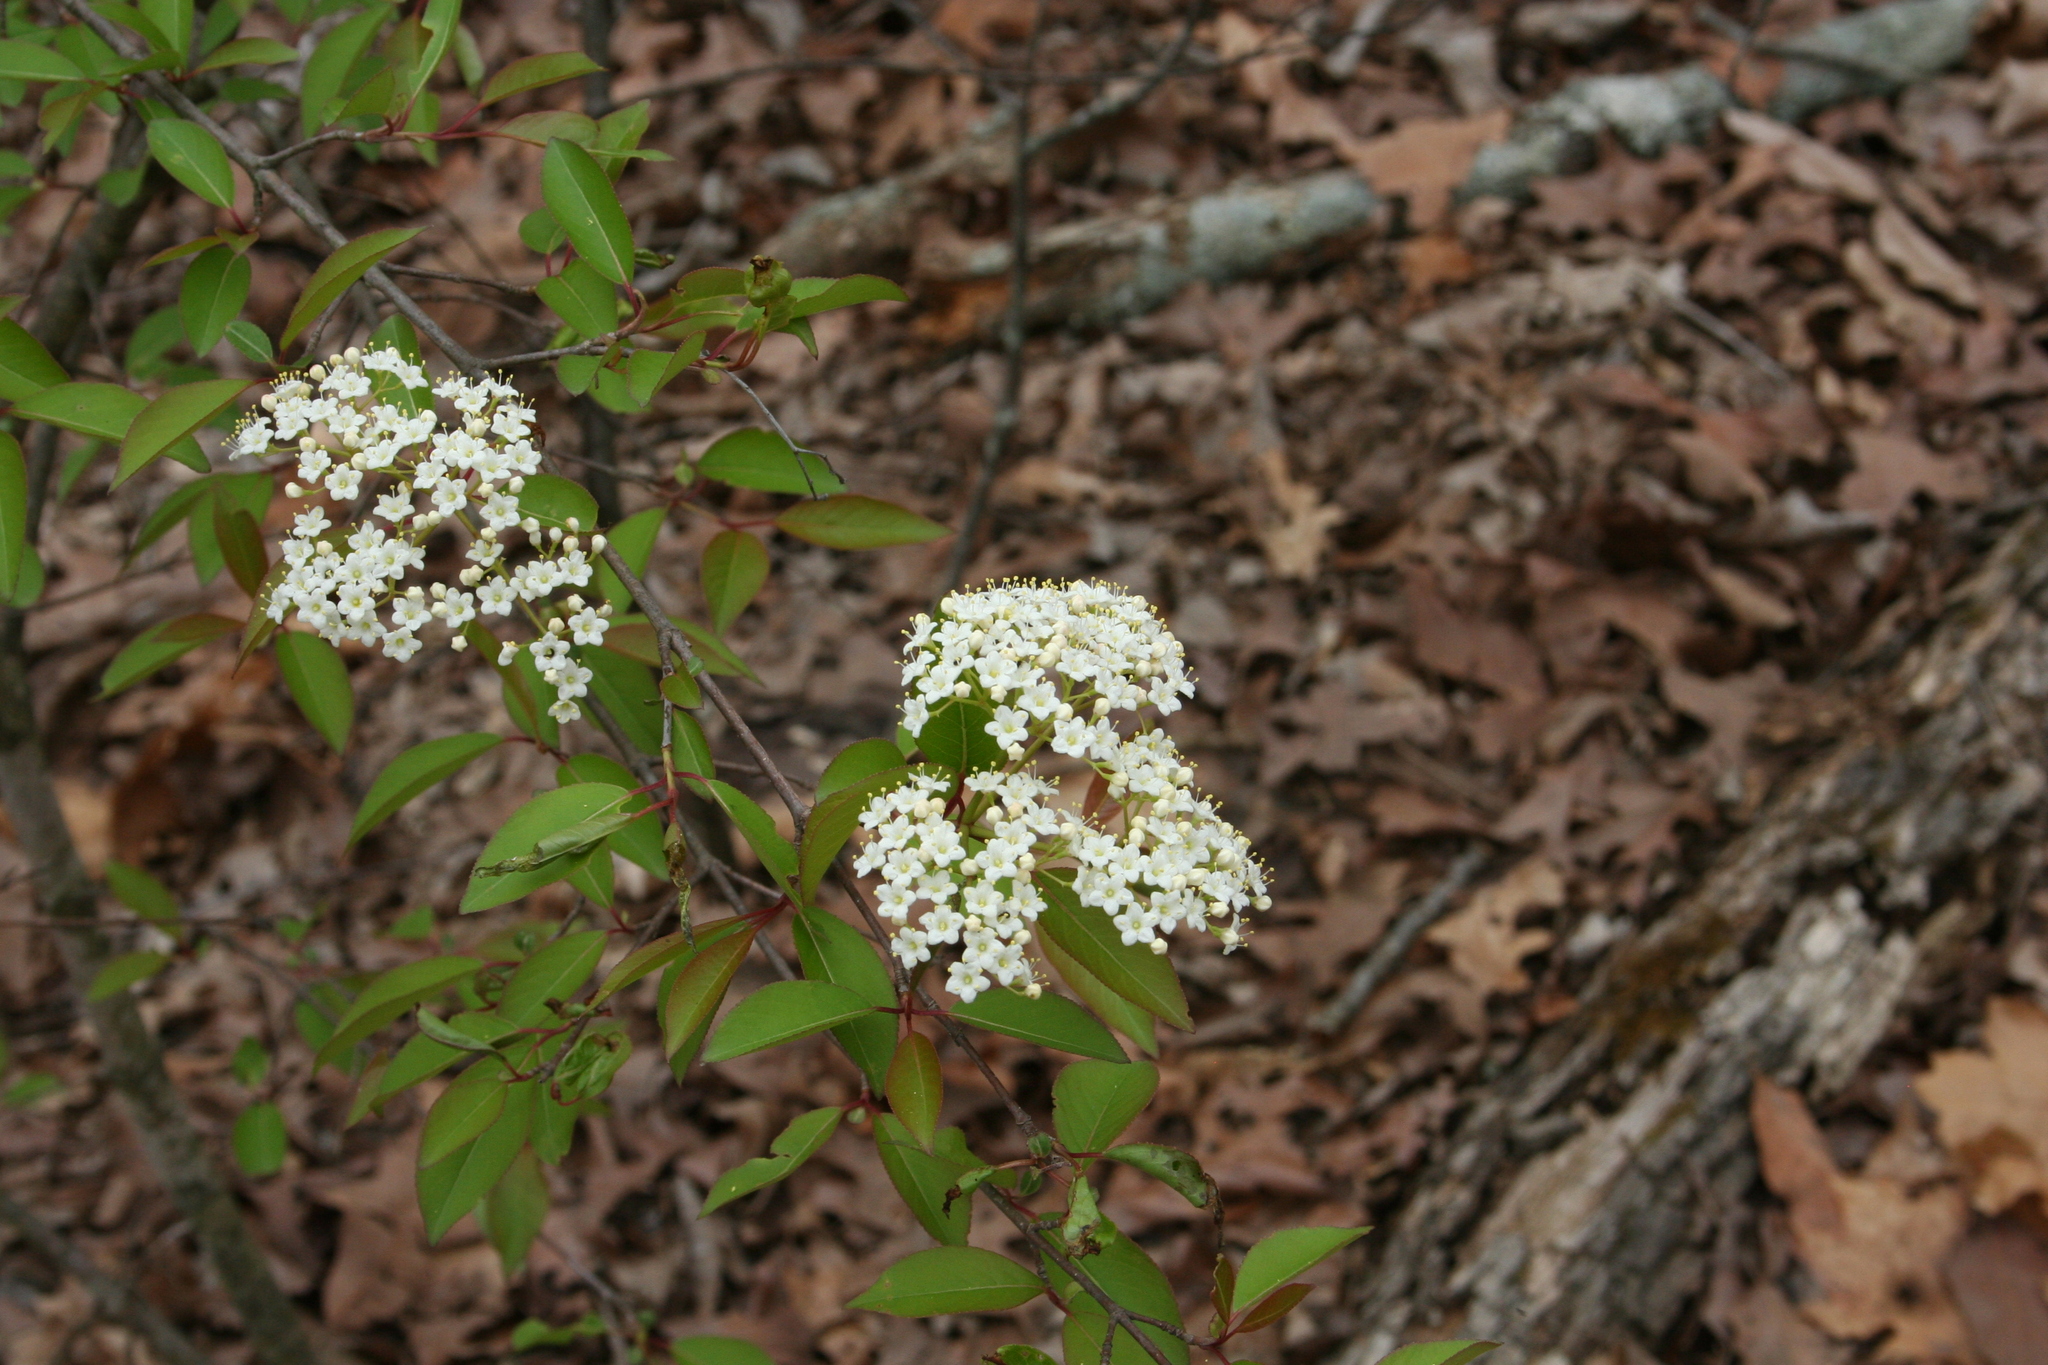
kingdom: Plantae
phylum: Tracheophyta
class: Magnoliopsida
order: Dipsacales
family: Viburnaceae
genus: Viburnum
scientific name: Viburnum prunifolium
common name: Black haw
